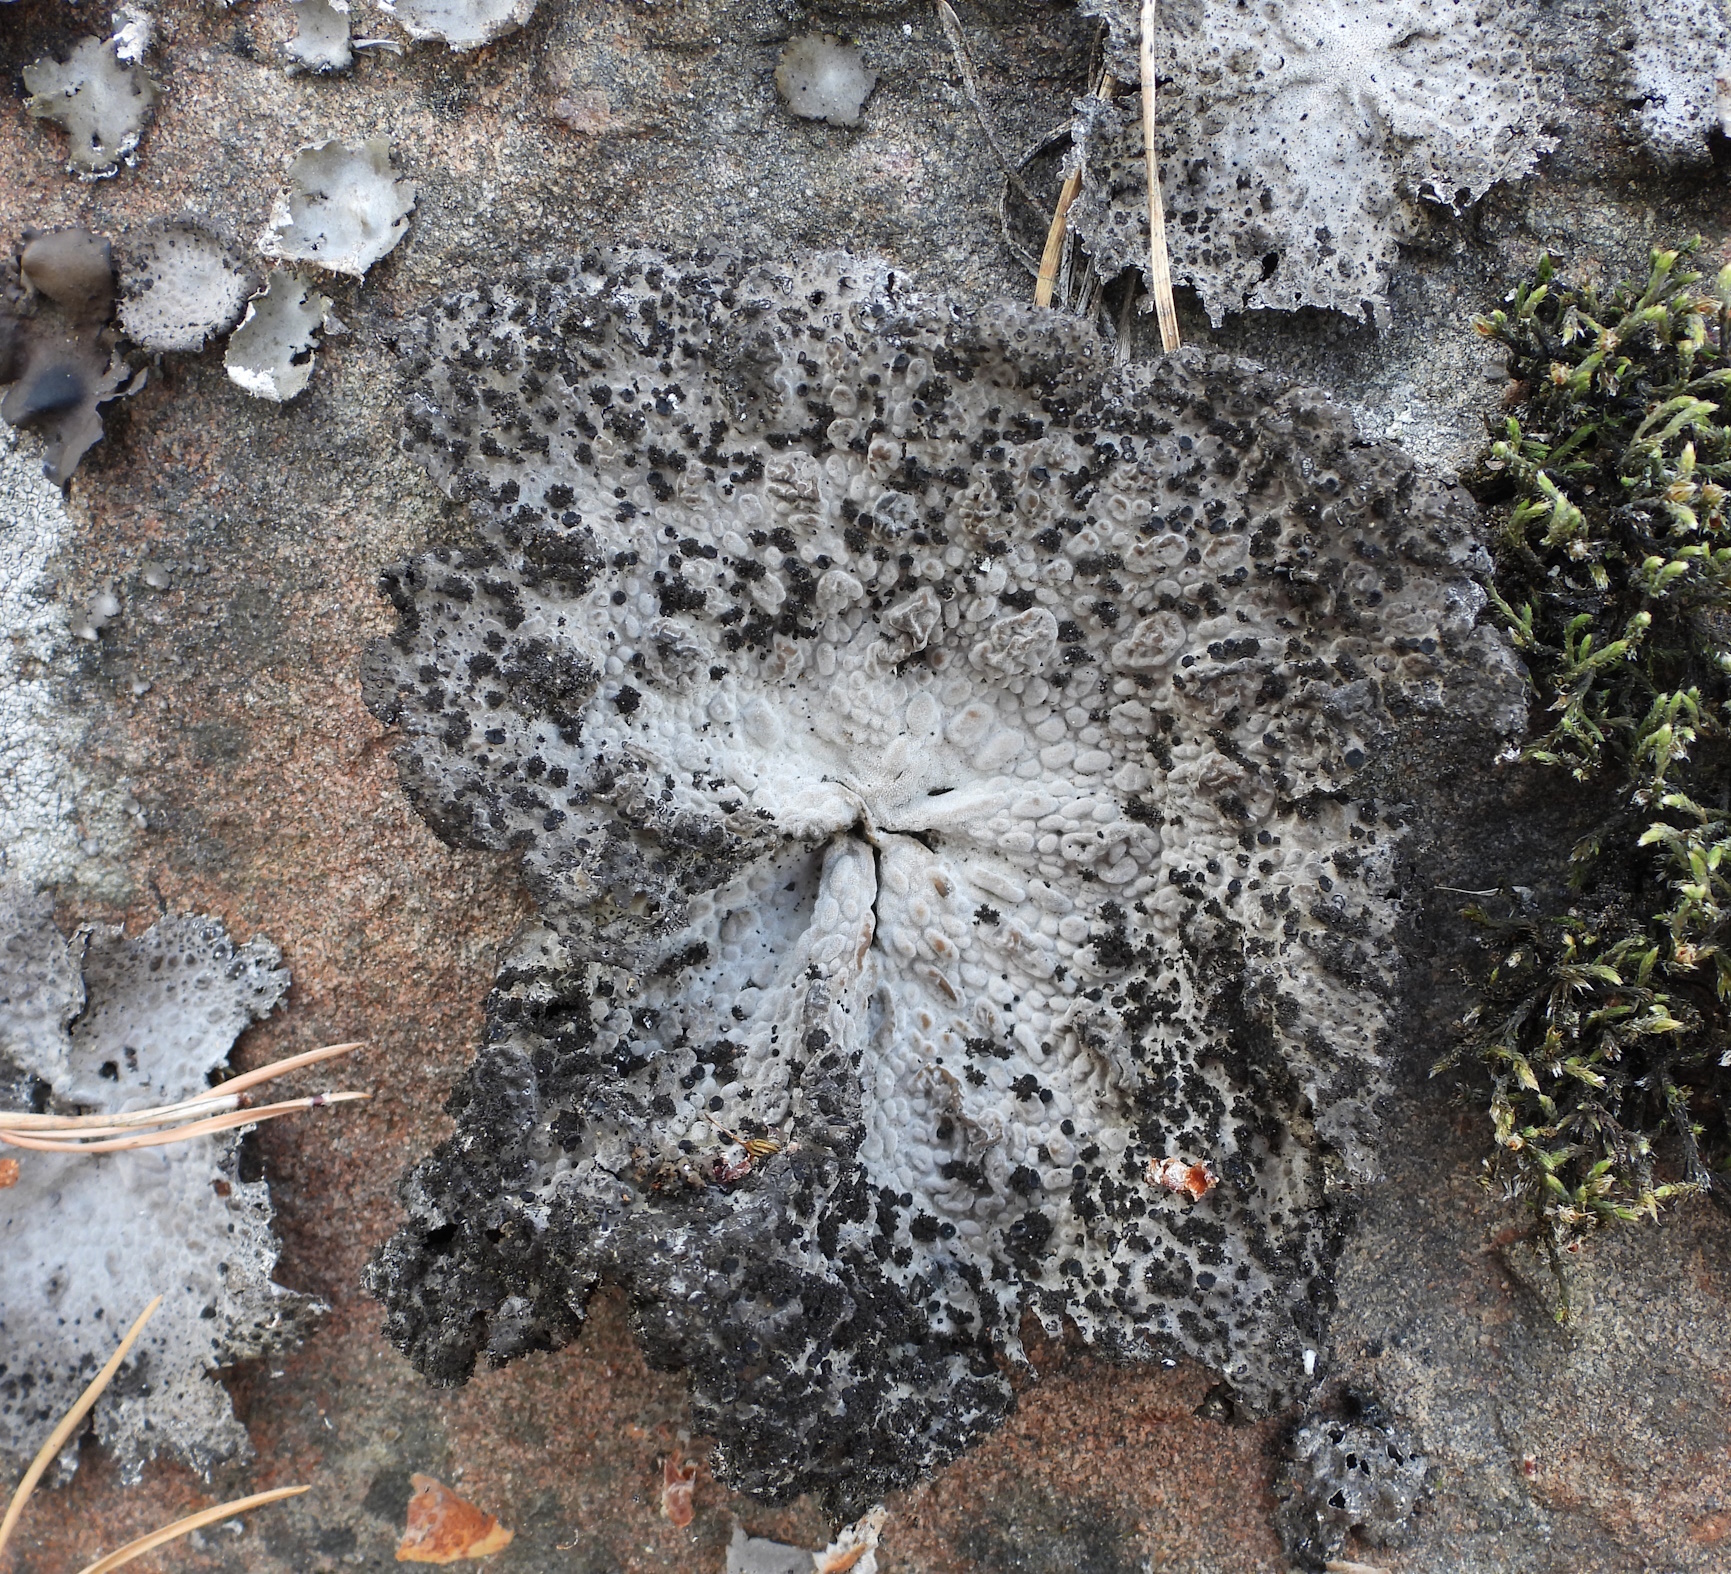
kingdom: Fungi
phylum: Ascomycota
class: Lecanoromycetes
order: Umbilicariales
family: Umbilicariaceae
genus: Lasallia
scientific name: Lasallia pustulata
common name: Blistered toadskin lichen
